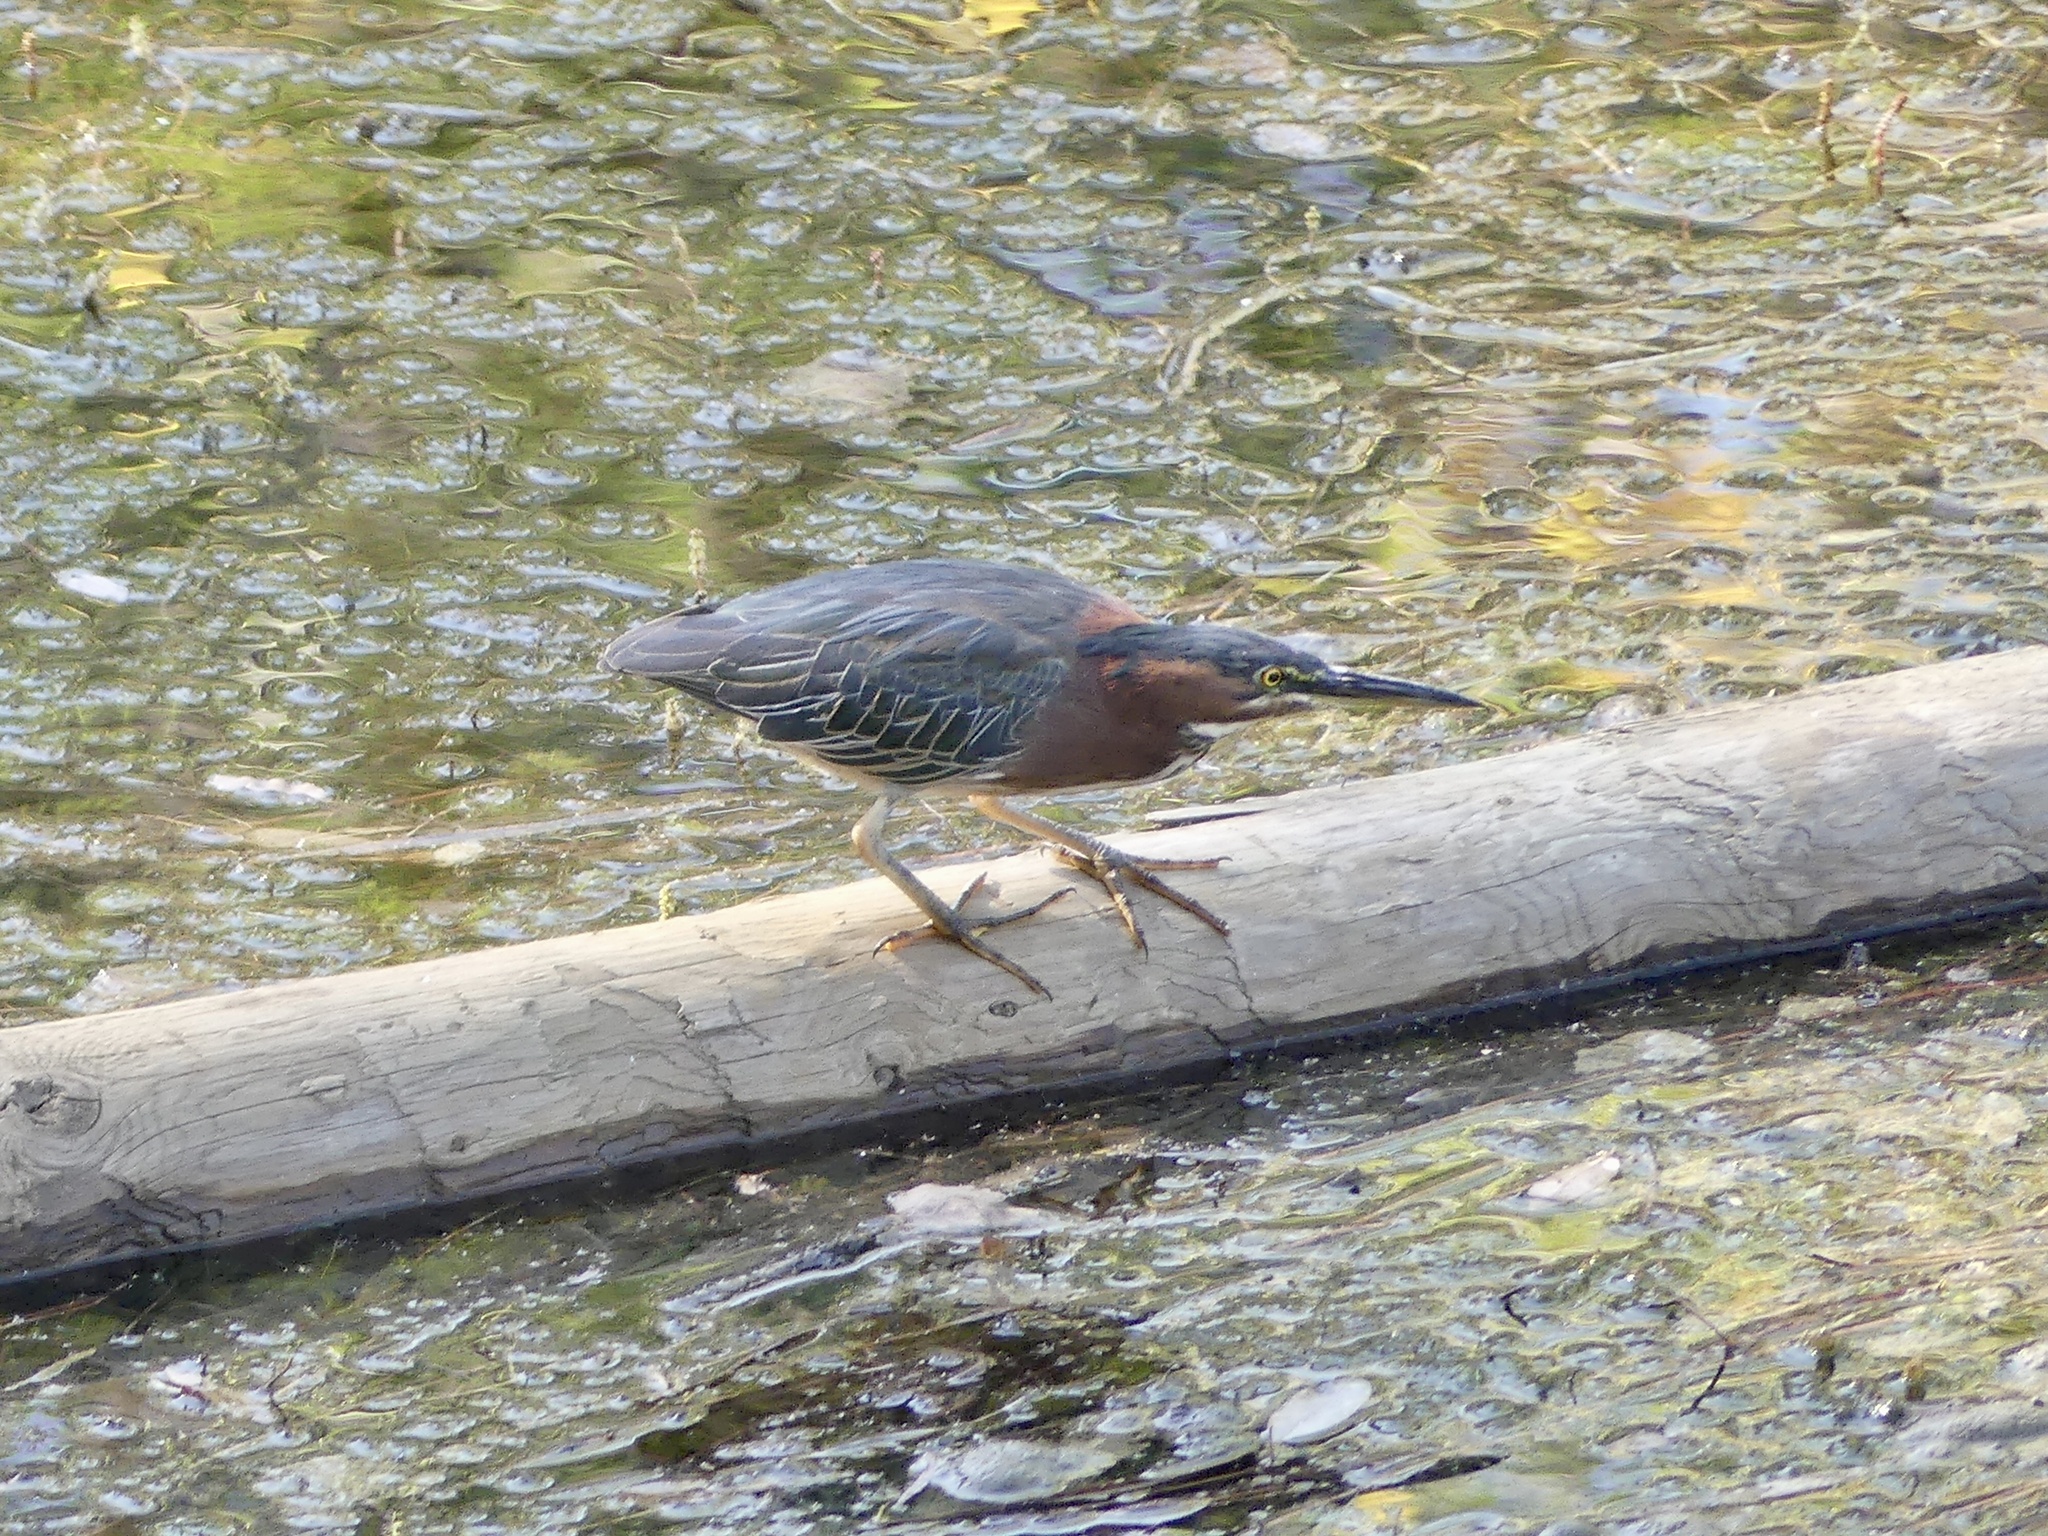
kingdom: Animalia
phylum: Chordata
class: Aves
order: Pelecaniformes
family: Ardeidae
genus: Butorides
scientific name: Butorides virescens
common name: Green heron
